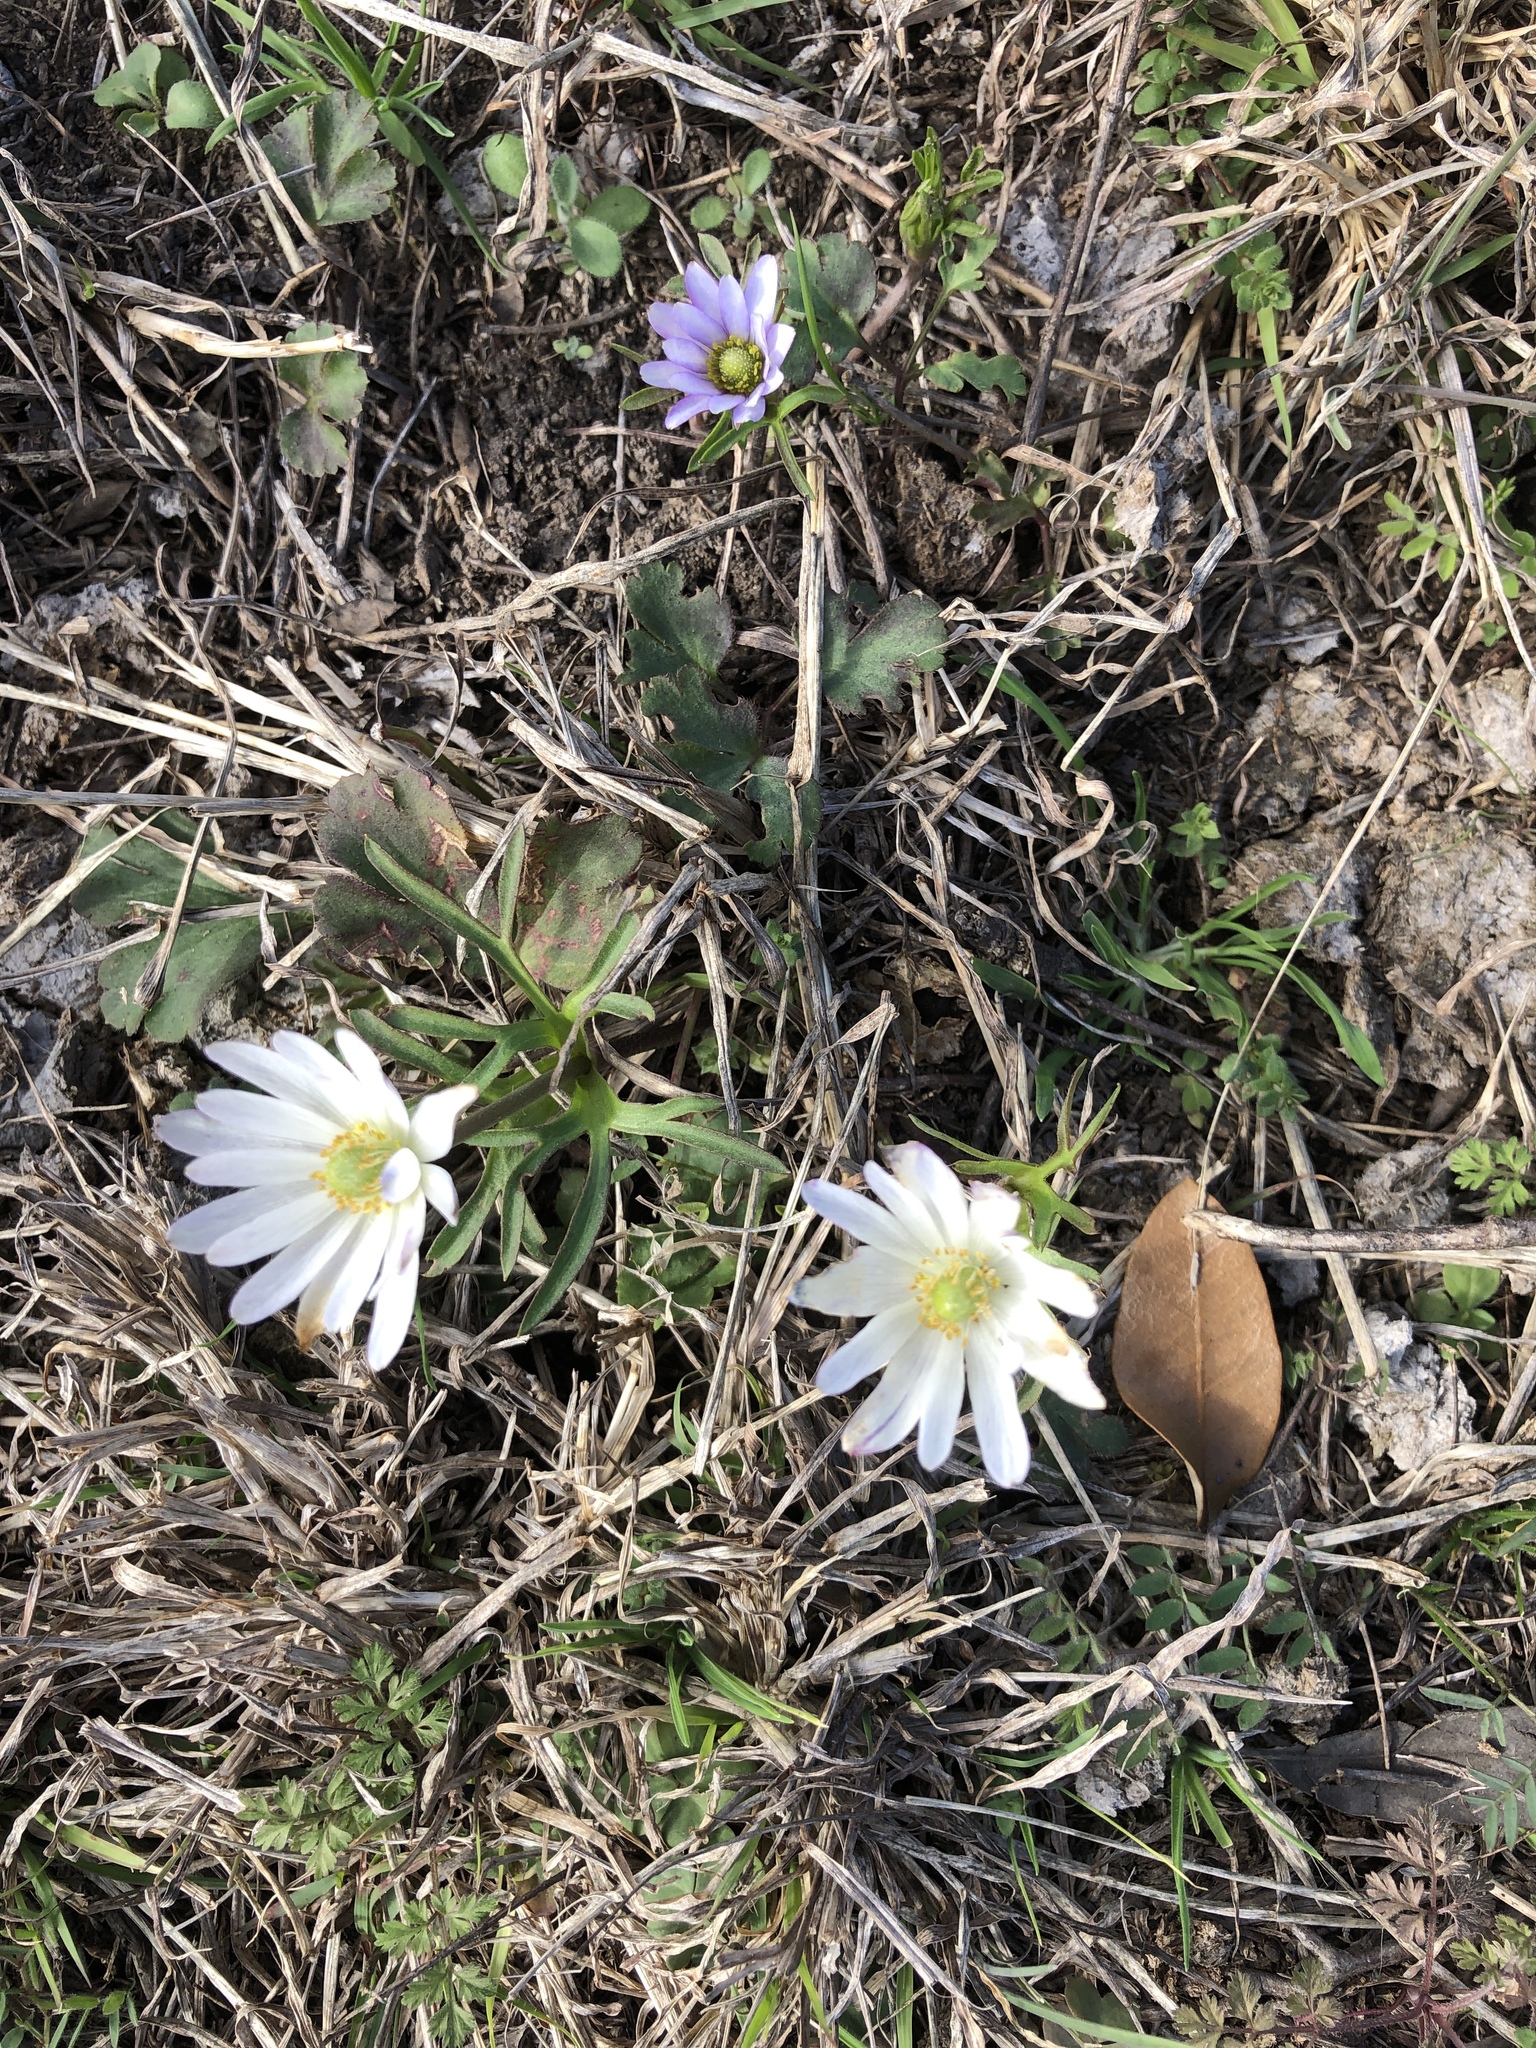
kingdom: Plantae
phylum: Tracheophyta
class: Magnoliopsida
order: Ranunculales
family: Ranunculaceae
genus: Anemone
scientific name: Anemone berlandieri
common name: Ten-petal anemone
